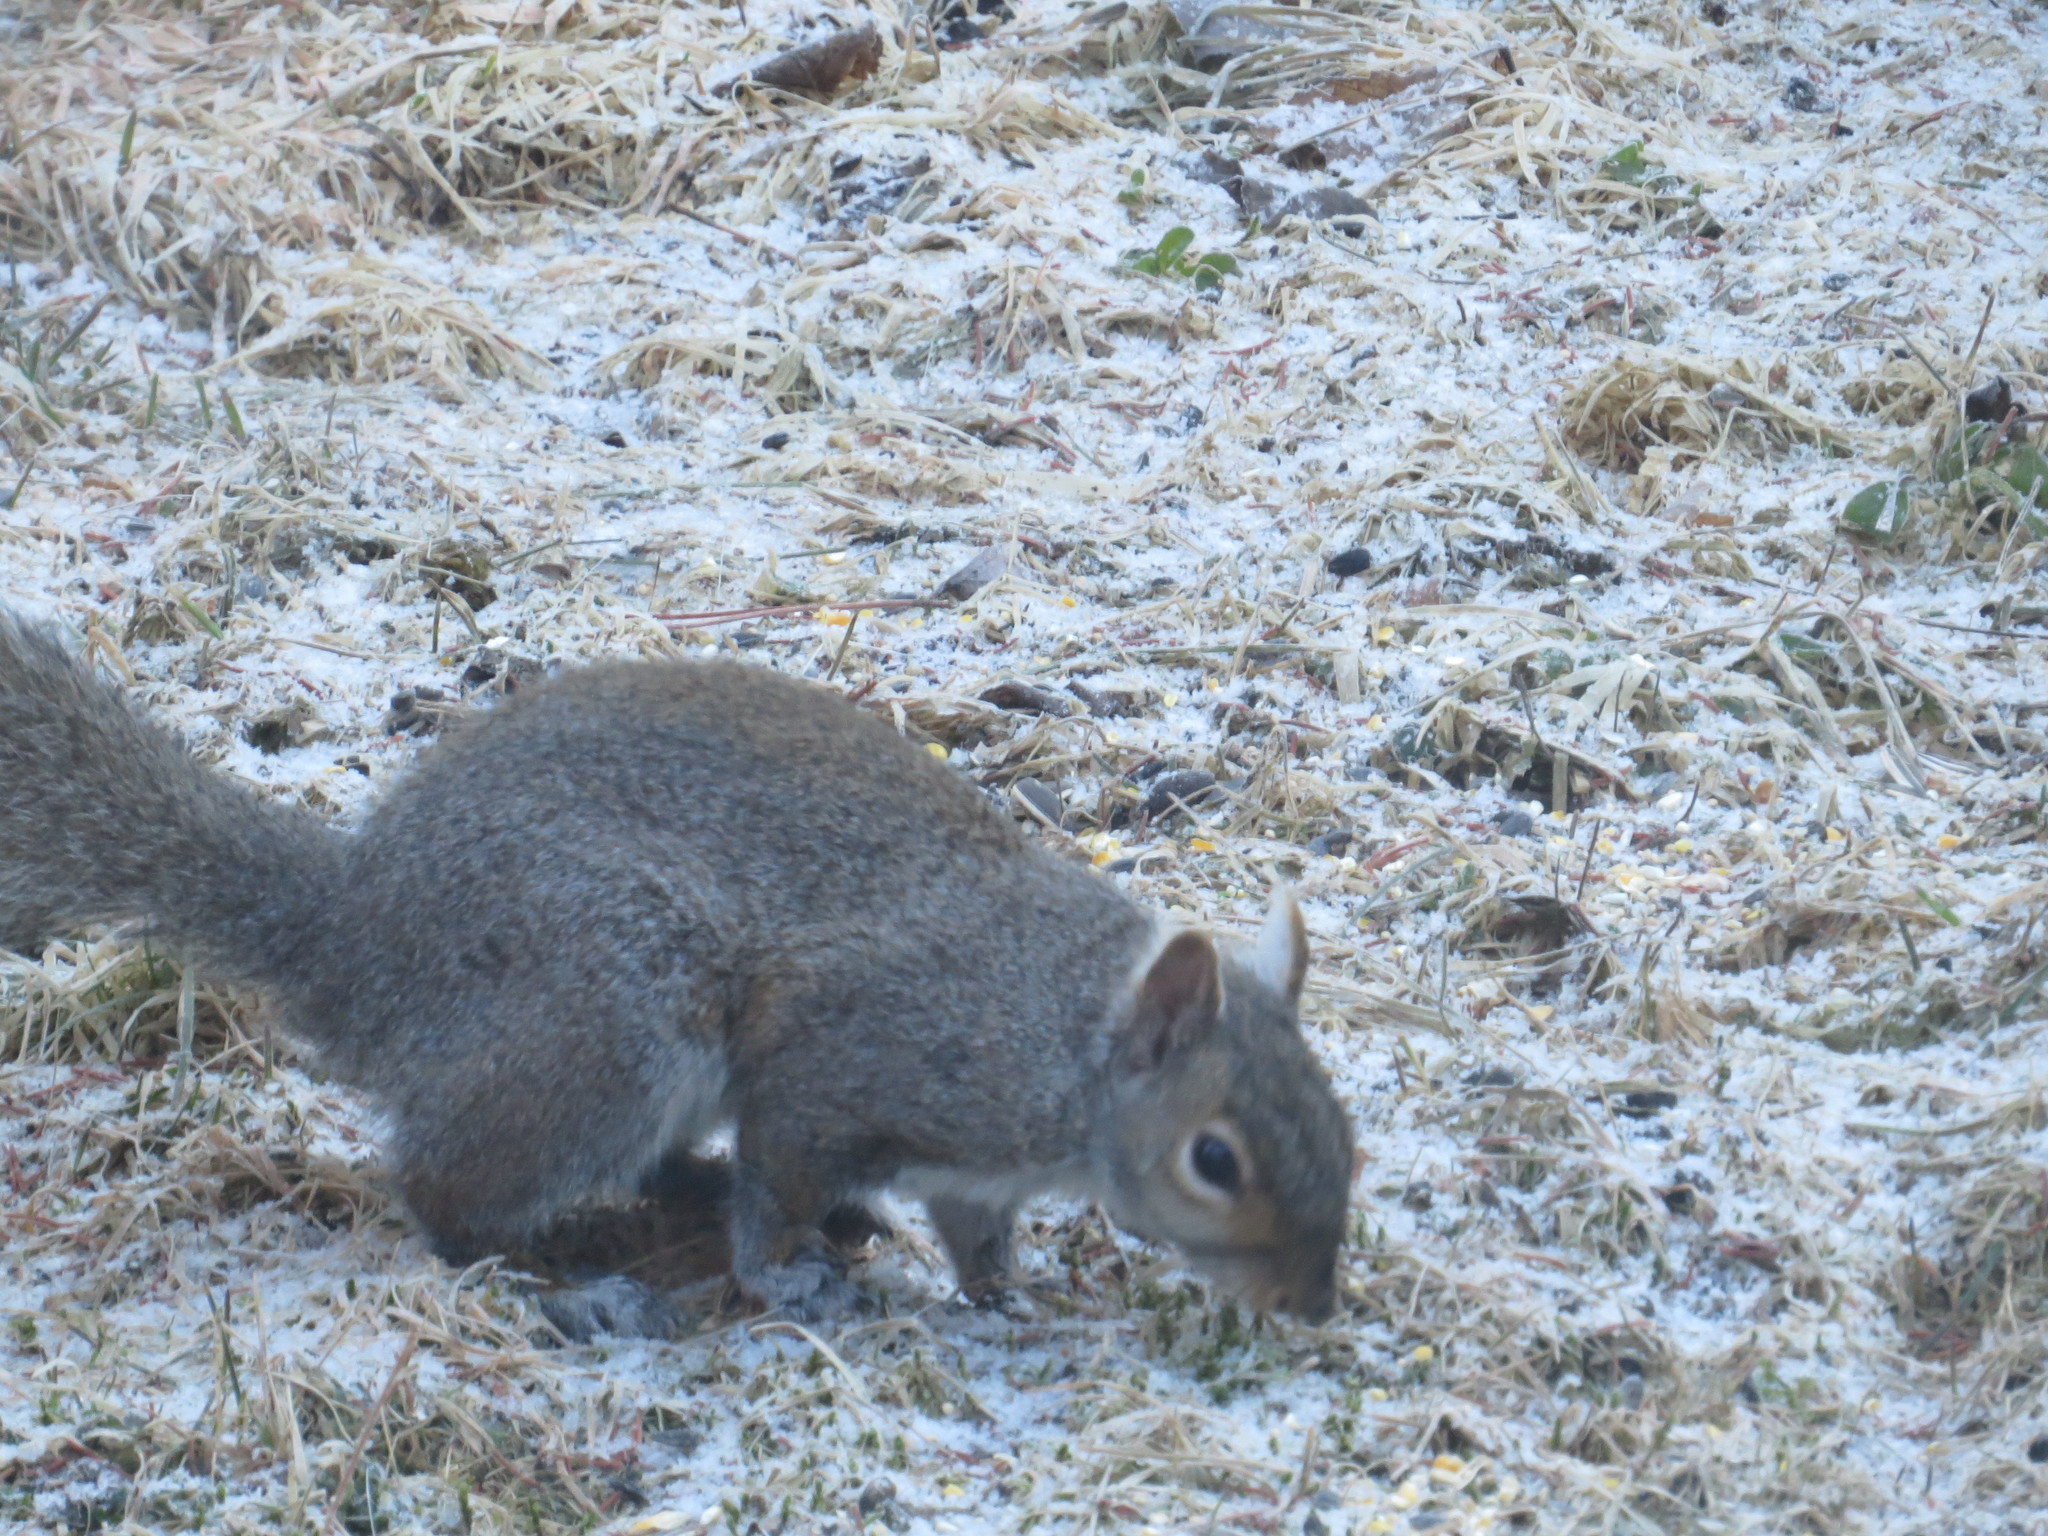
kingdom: Animalia
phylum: Chordata
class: Mammalia
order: Rodentia
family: Sciuridae
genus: Sciurus
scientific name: Sciurus carolinensis
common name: Eastern gray squirrel
